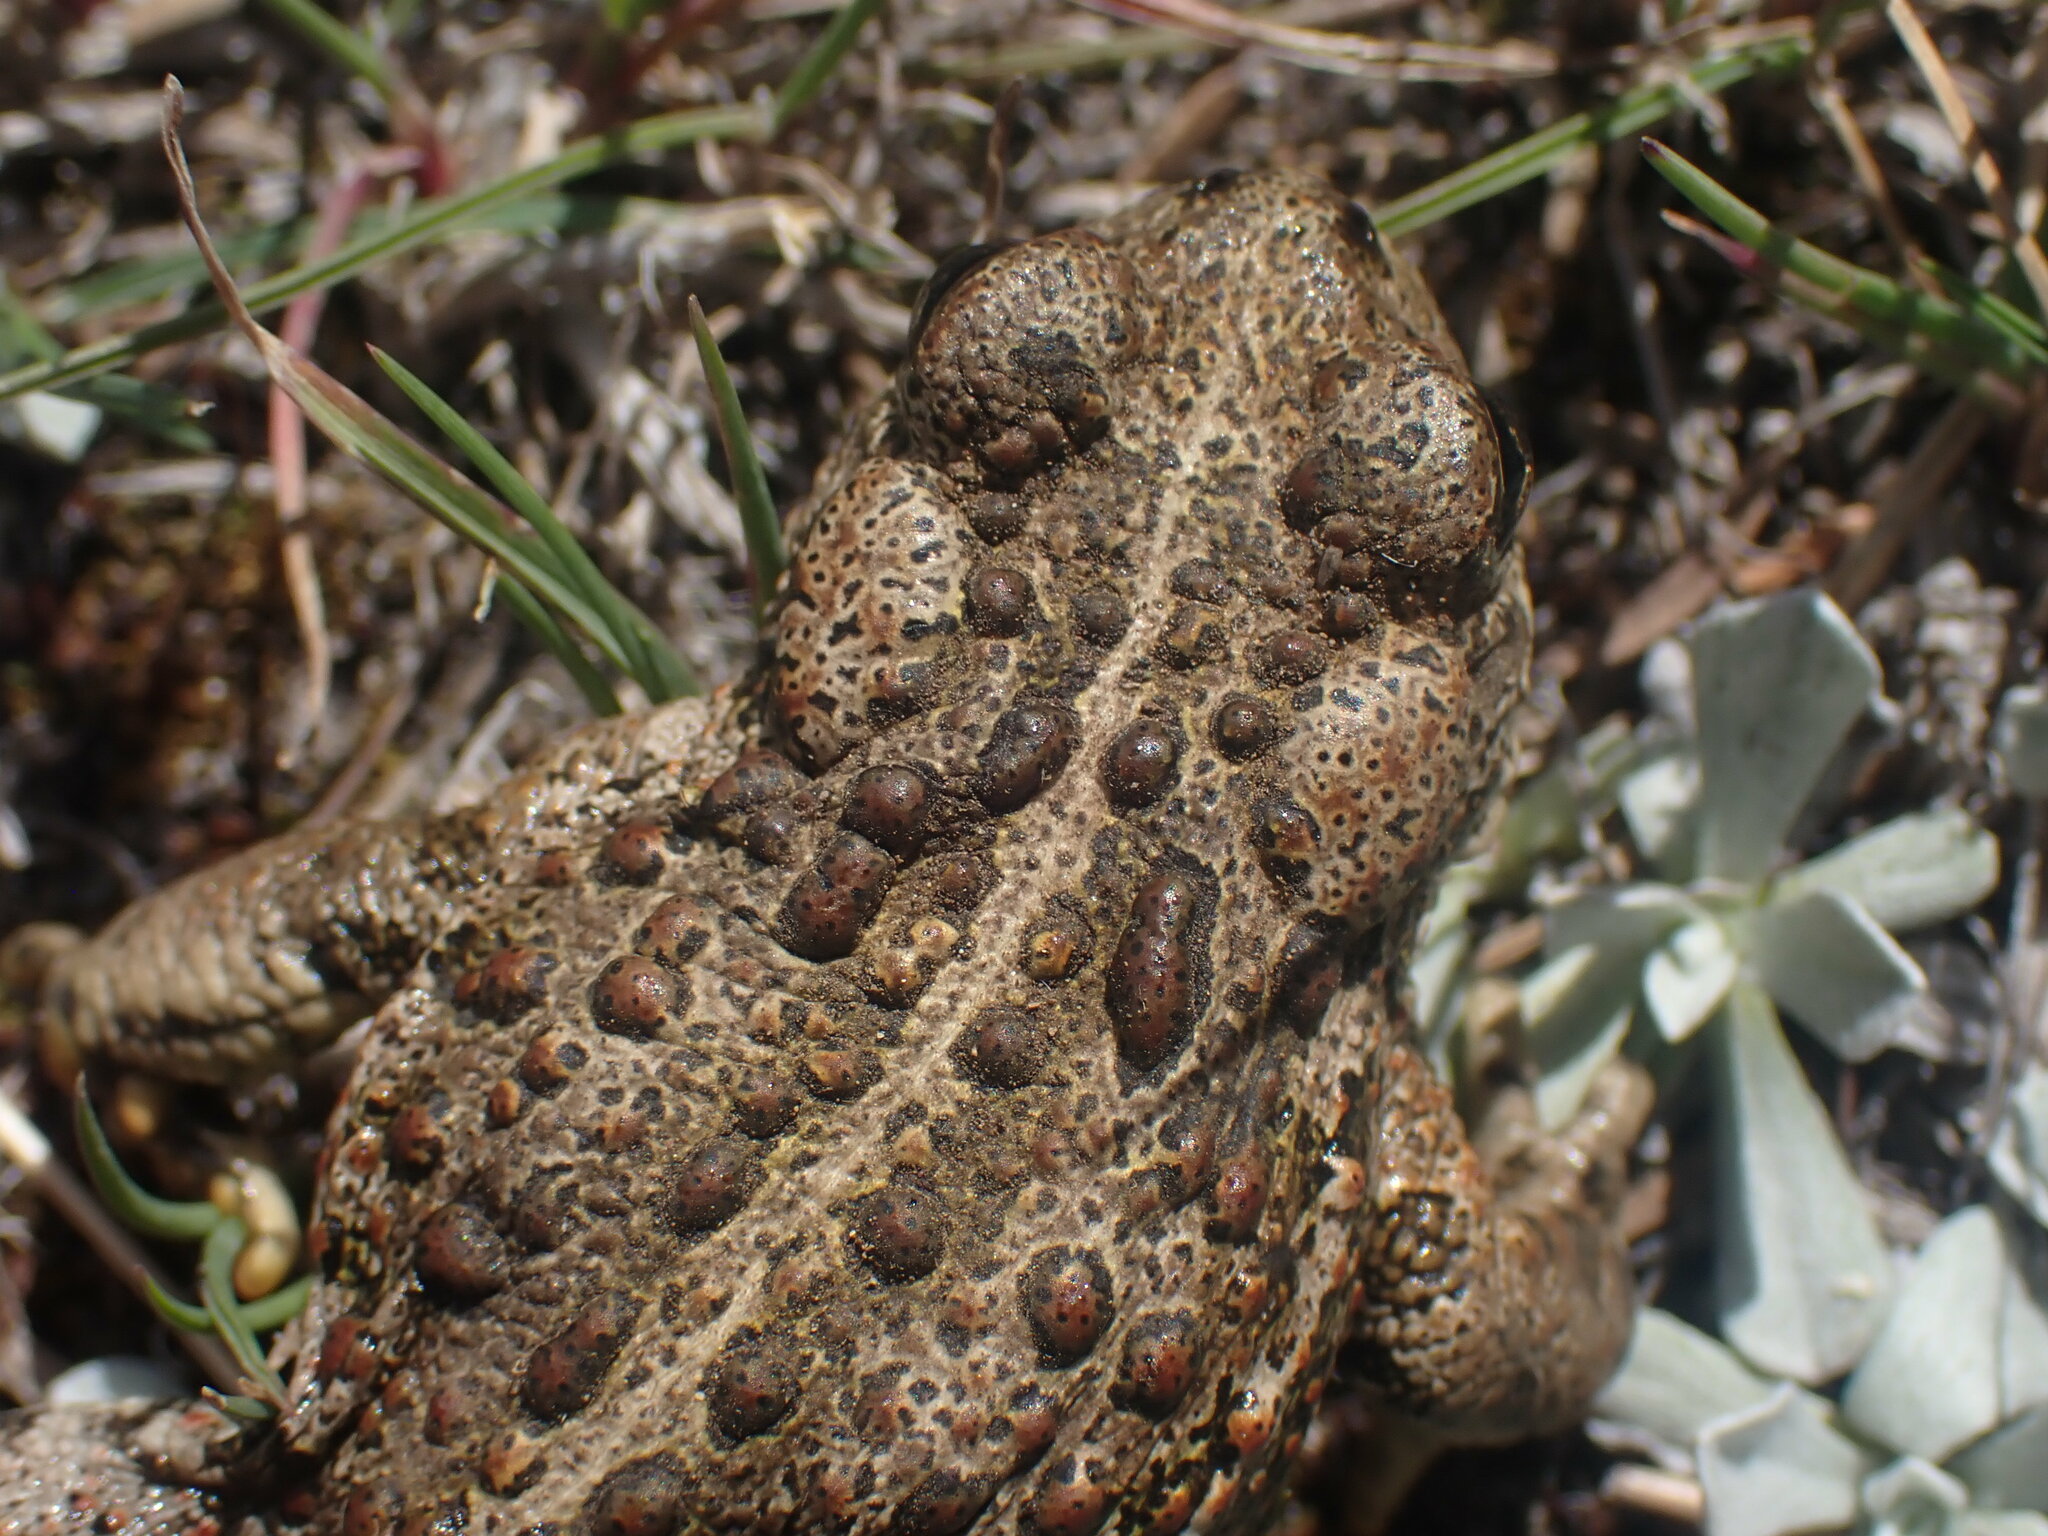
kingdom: Animalia
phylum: Chordata
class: Amphibia
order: Anura
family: Bufonidae
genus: Anaxyrus
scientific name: Anaxyrus boreas
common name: Western toad
